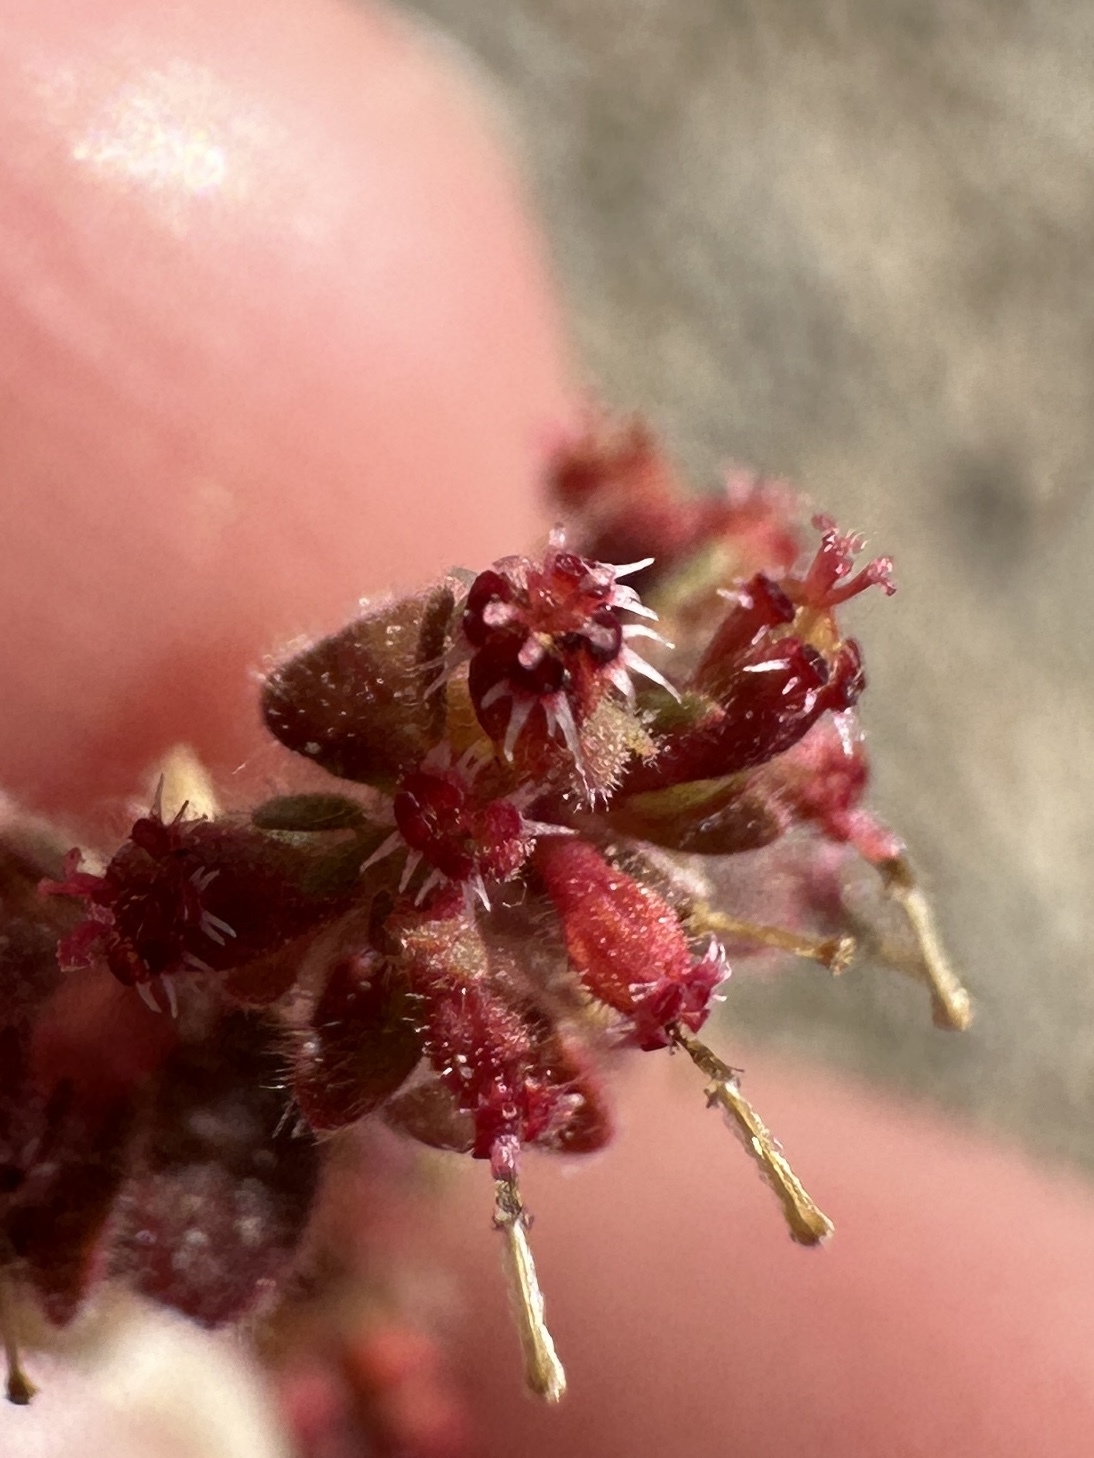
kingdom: Plantae
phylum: Tracheophyta
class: Magnoliopsida
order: Malpighiales
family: Euphorbiaceae
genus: Euphorbia
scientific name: Euphorbia setiloba
